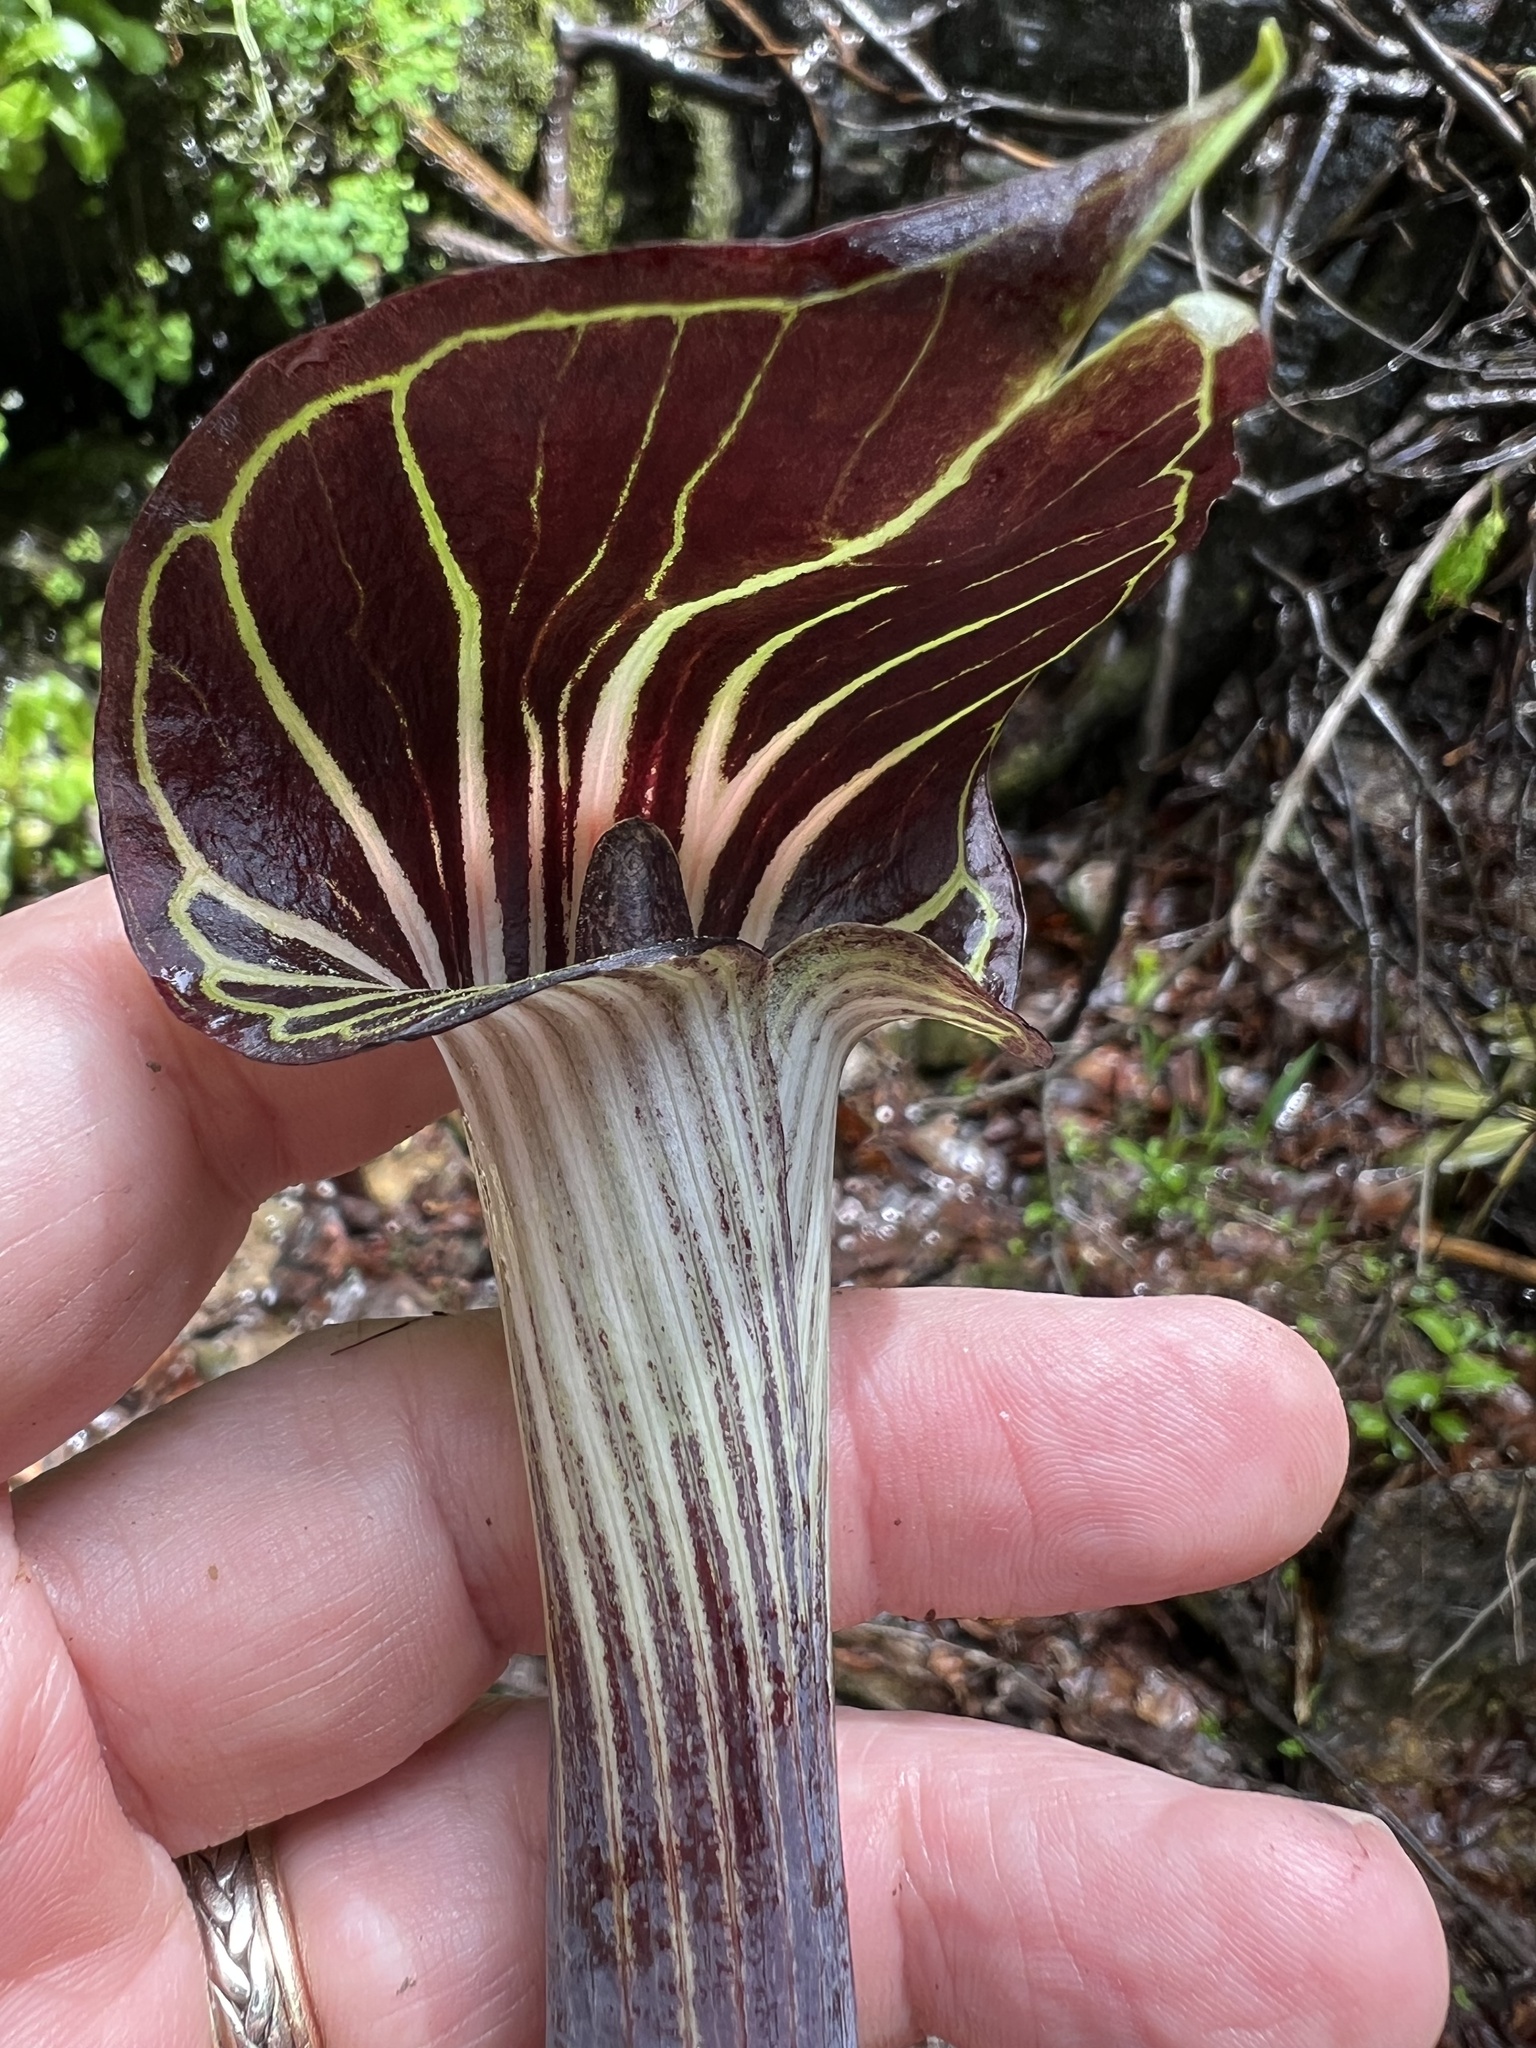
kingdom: Plantae
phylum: Tracheophyta
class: Liliopsida
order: Alismatales
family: Araceae
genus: Arisaema
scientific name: Arisaema triphyllum
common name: Jack-in-the-pulpit
